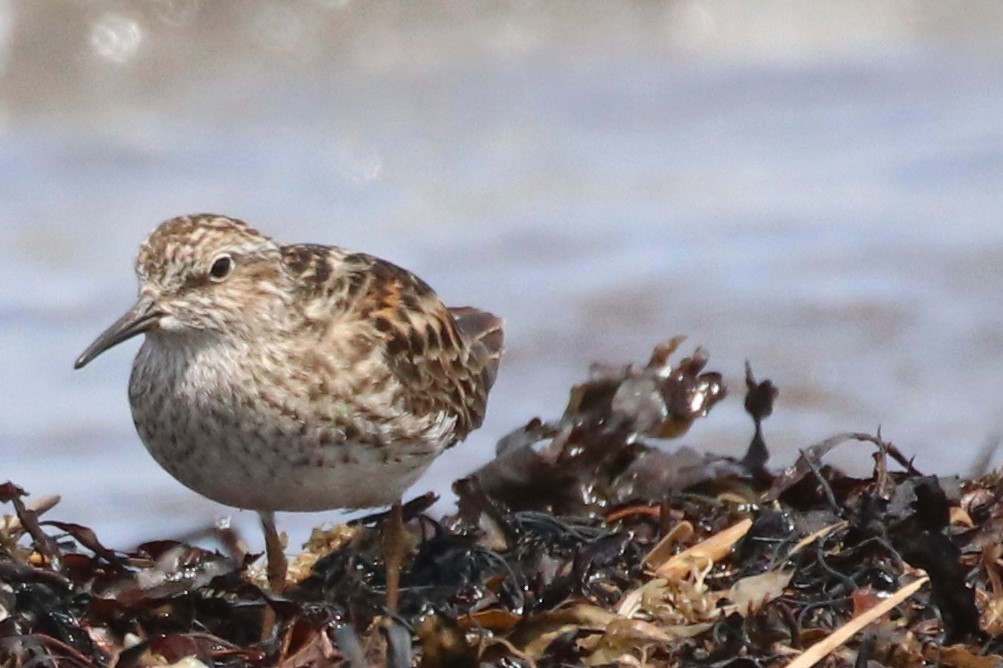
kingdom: Animalia
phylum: Chordata
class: Aves
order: Charadriiformes
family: Scolopacidae
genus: Calidris
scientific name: Calidris minutilla
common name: Least sandpiper
